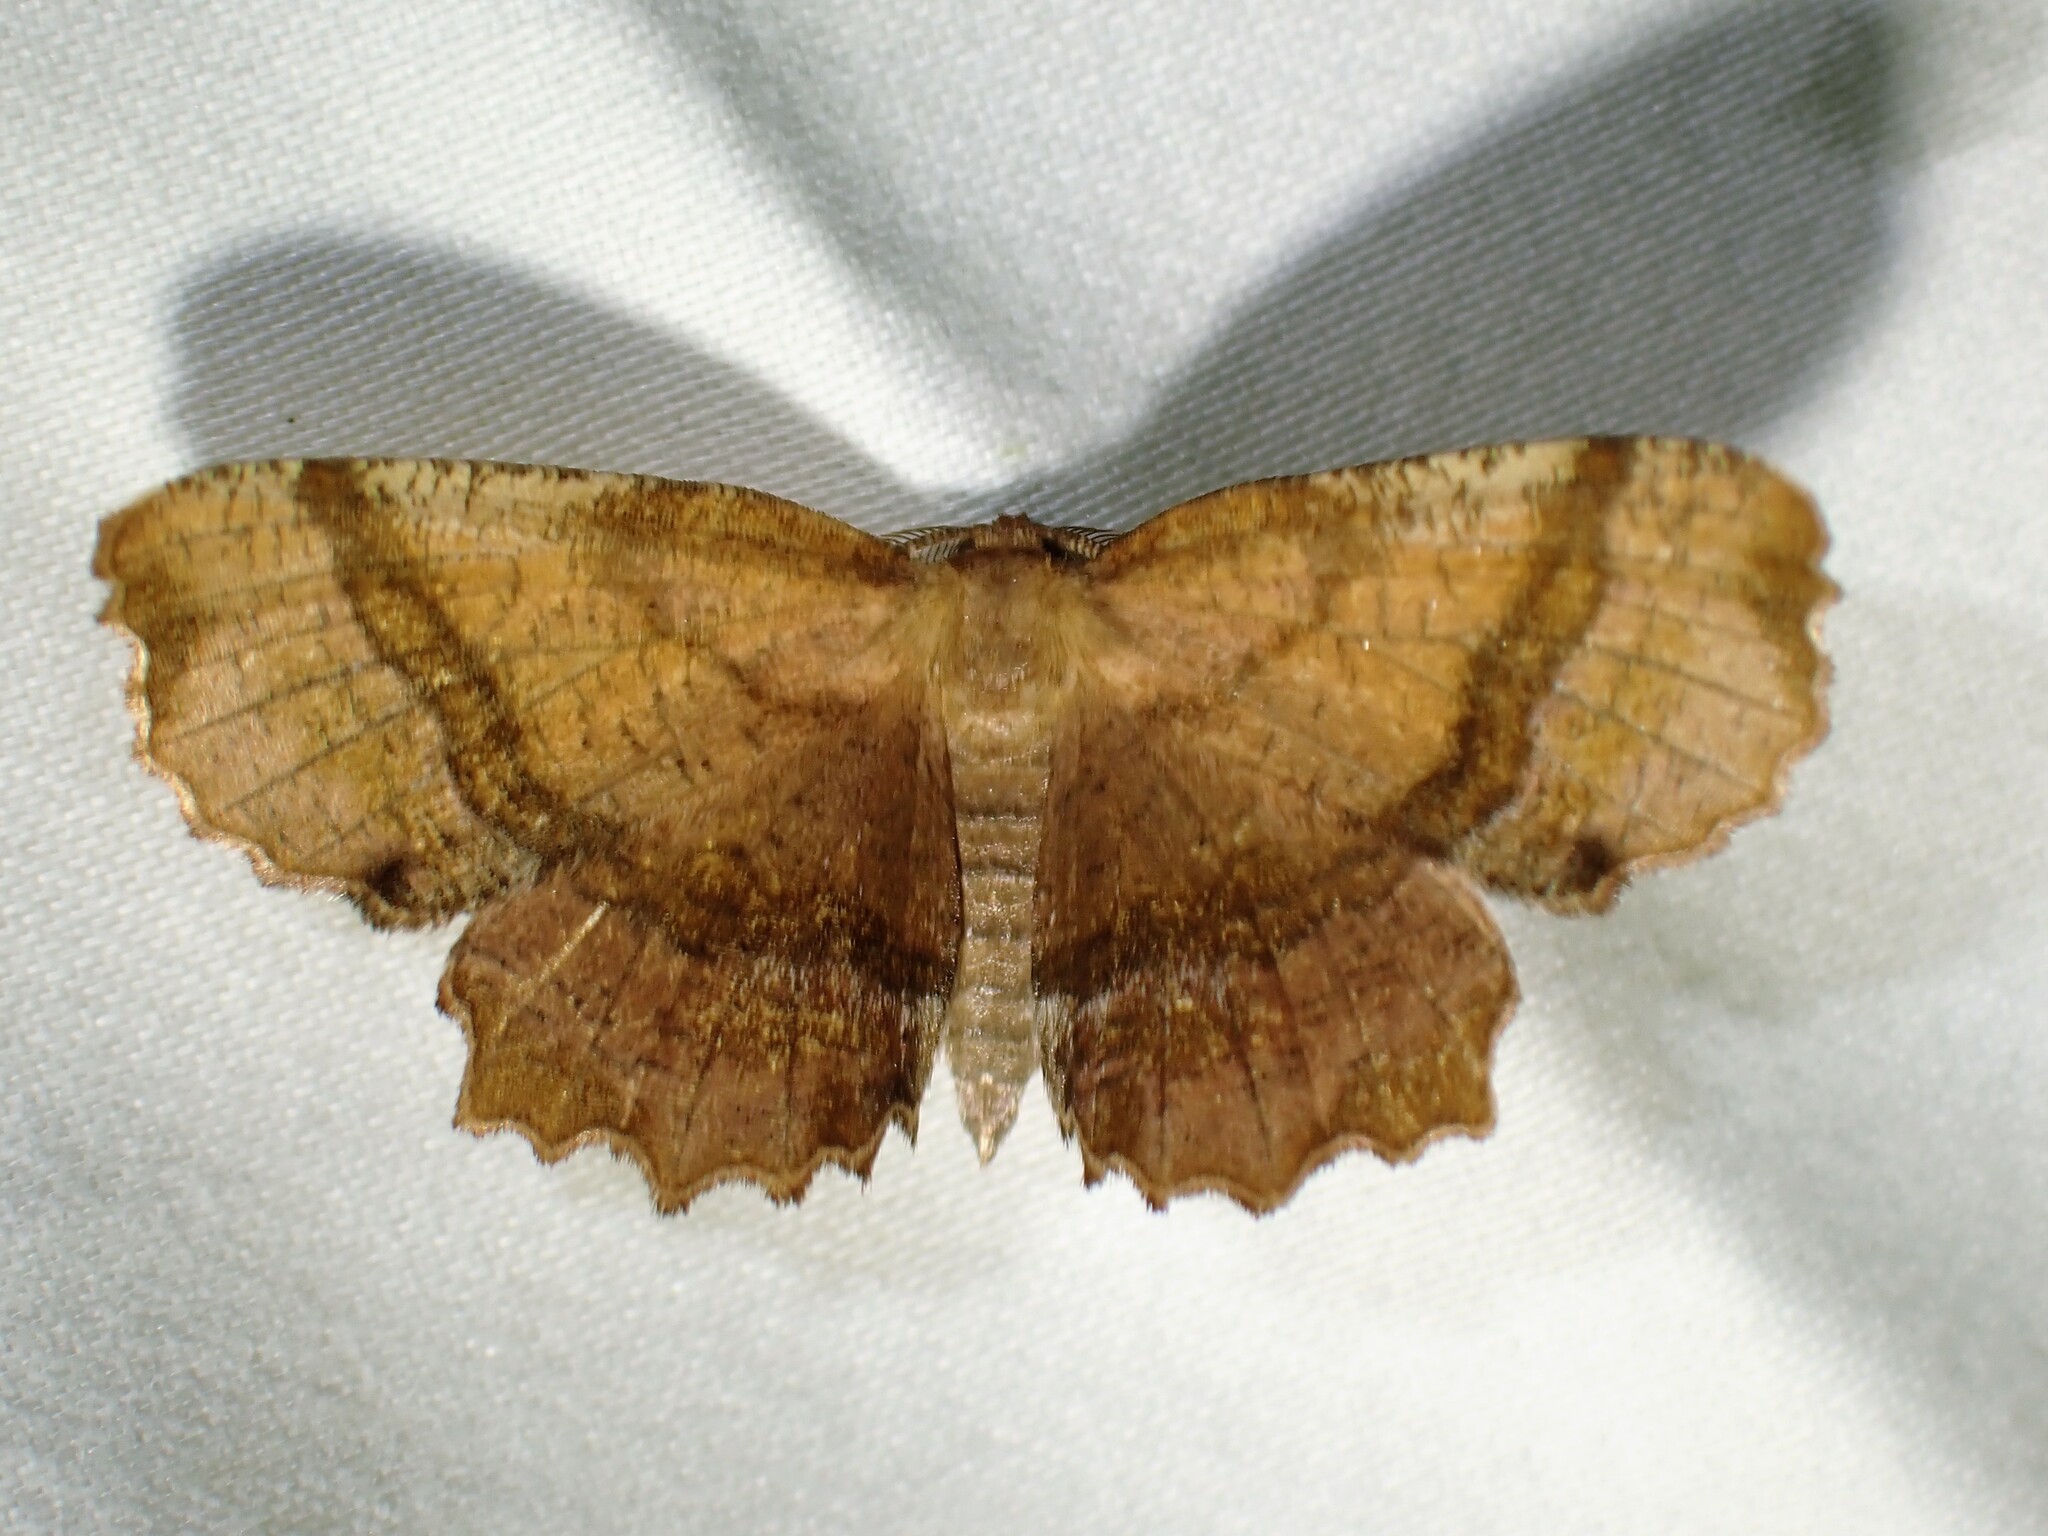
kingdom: Animalia
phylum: Arthropoda
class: Insecta
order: Lepidoptera
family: Geometridae
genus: Cepphis
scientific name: Cepphis armataria
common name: Scallop moth
